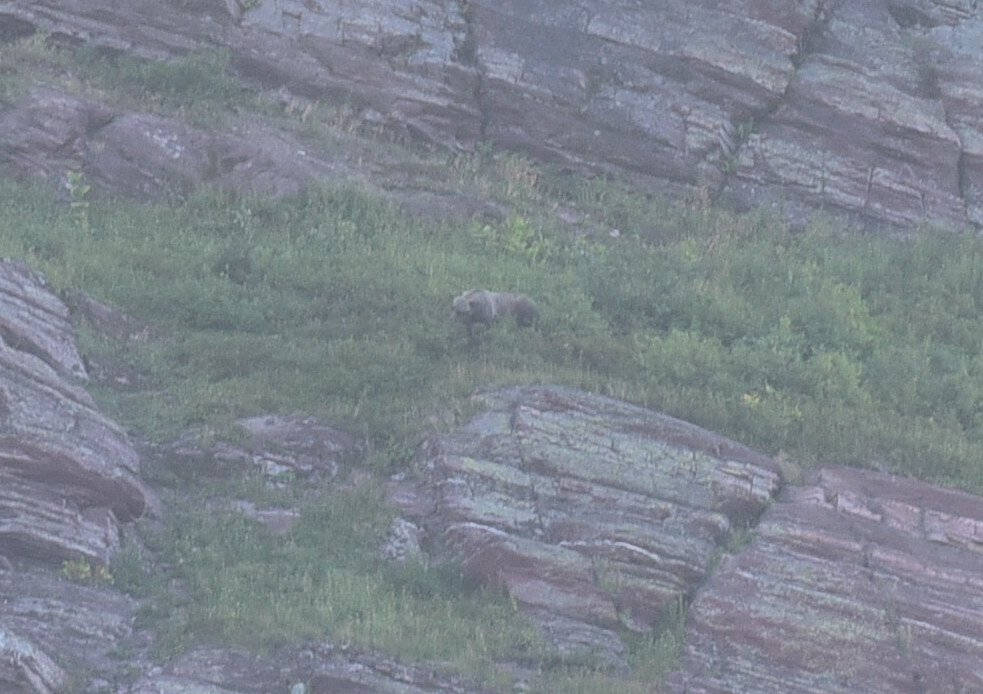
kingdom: Animalia
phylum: Chordata
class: Mammalia
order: Carnivora
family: Ursidae
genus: Ursus
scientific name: Ursus arctos
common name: Brown bear
